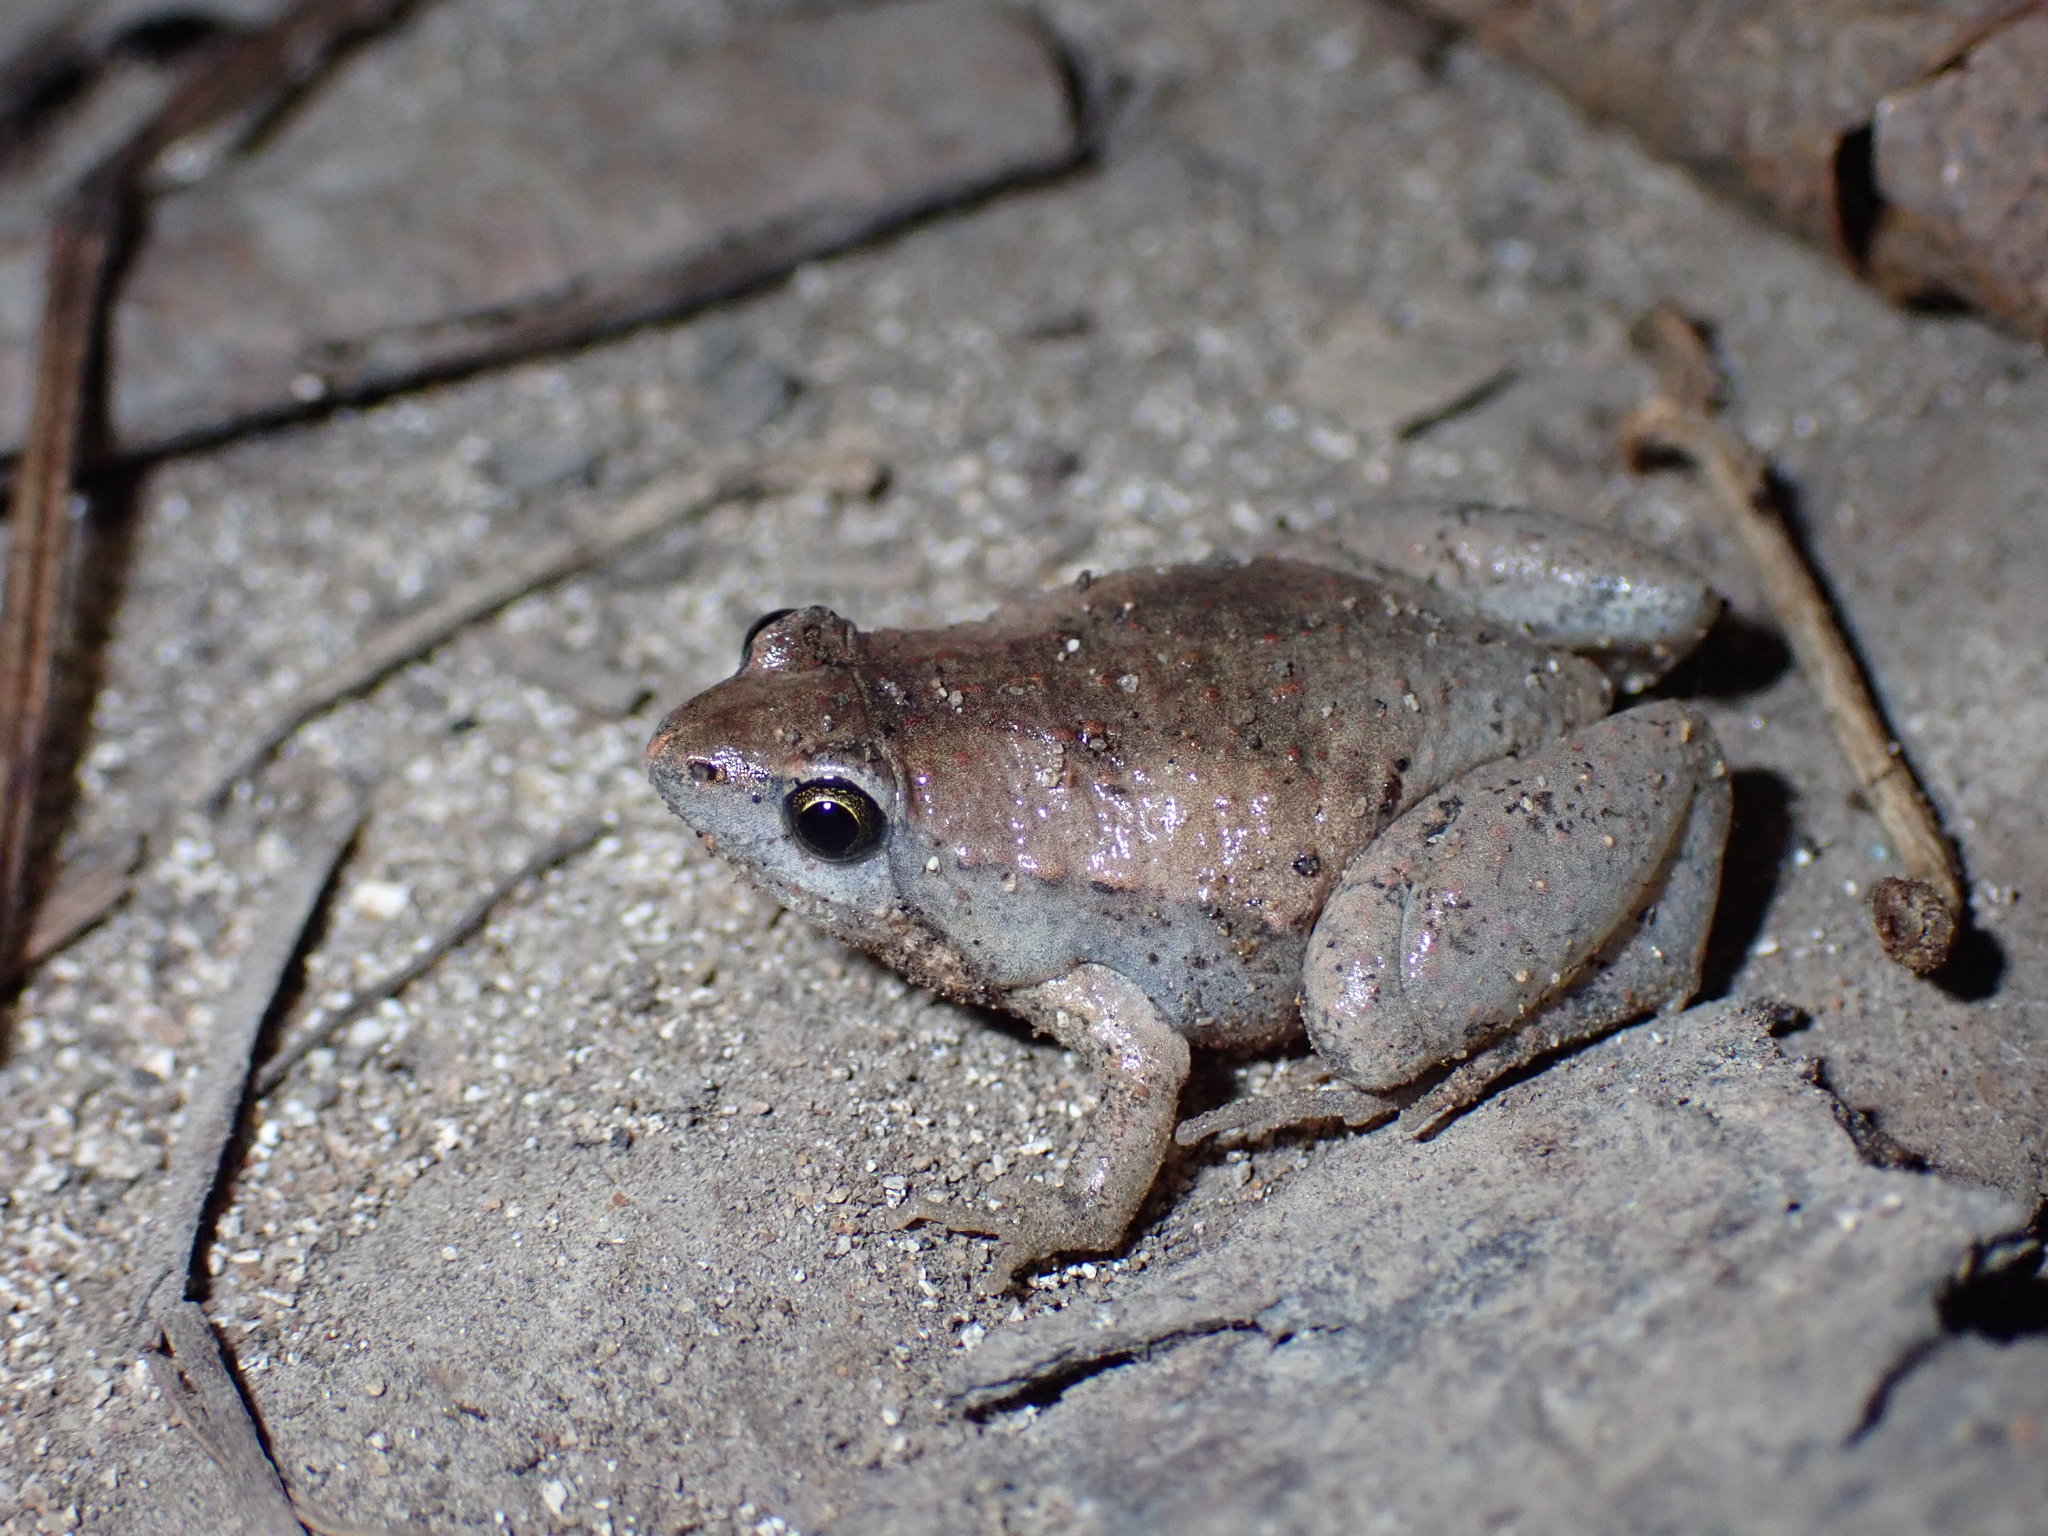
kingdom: Animalia
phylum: Chordata
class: Amphibia
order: Anura
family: Microhylidae
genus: Microhyla
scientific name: Microhyla mukhlesuri
